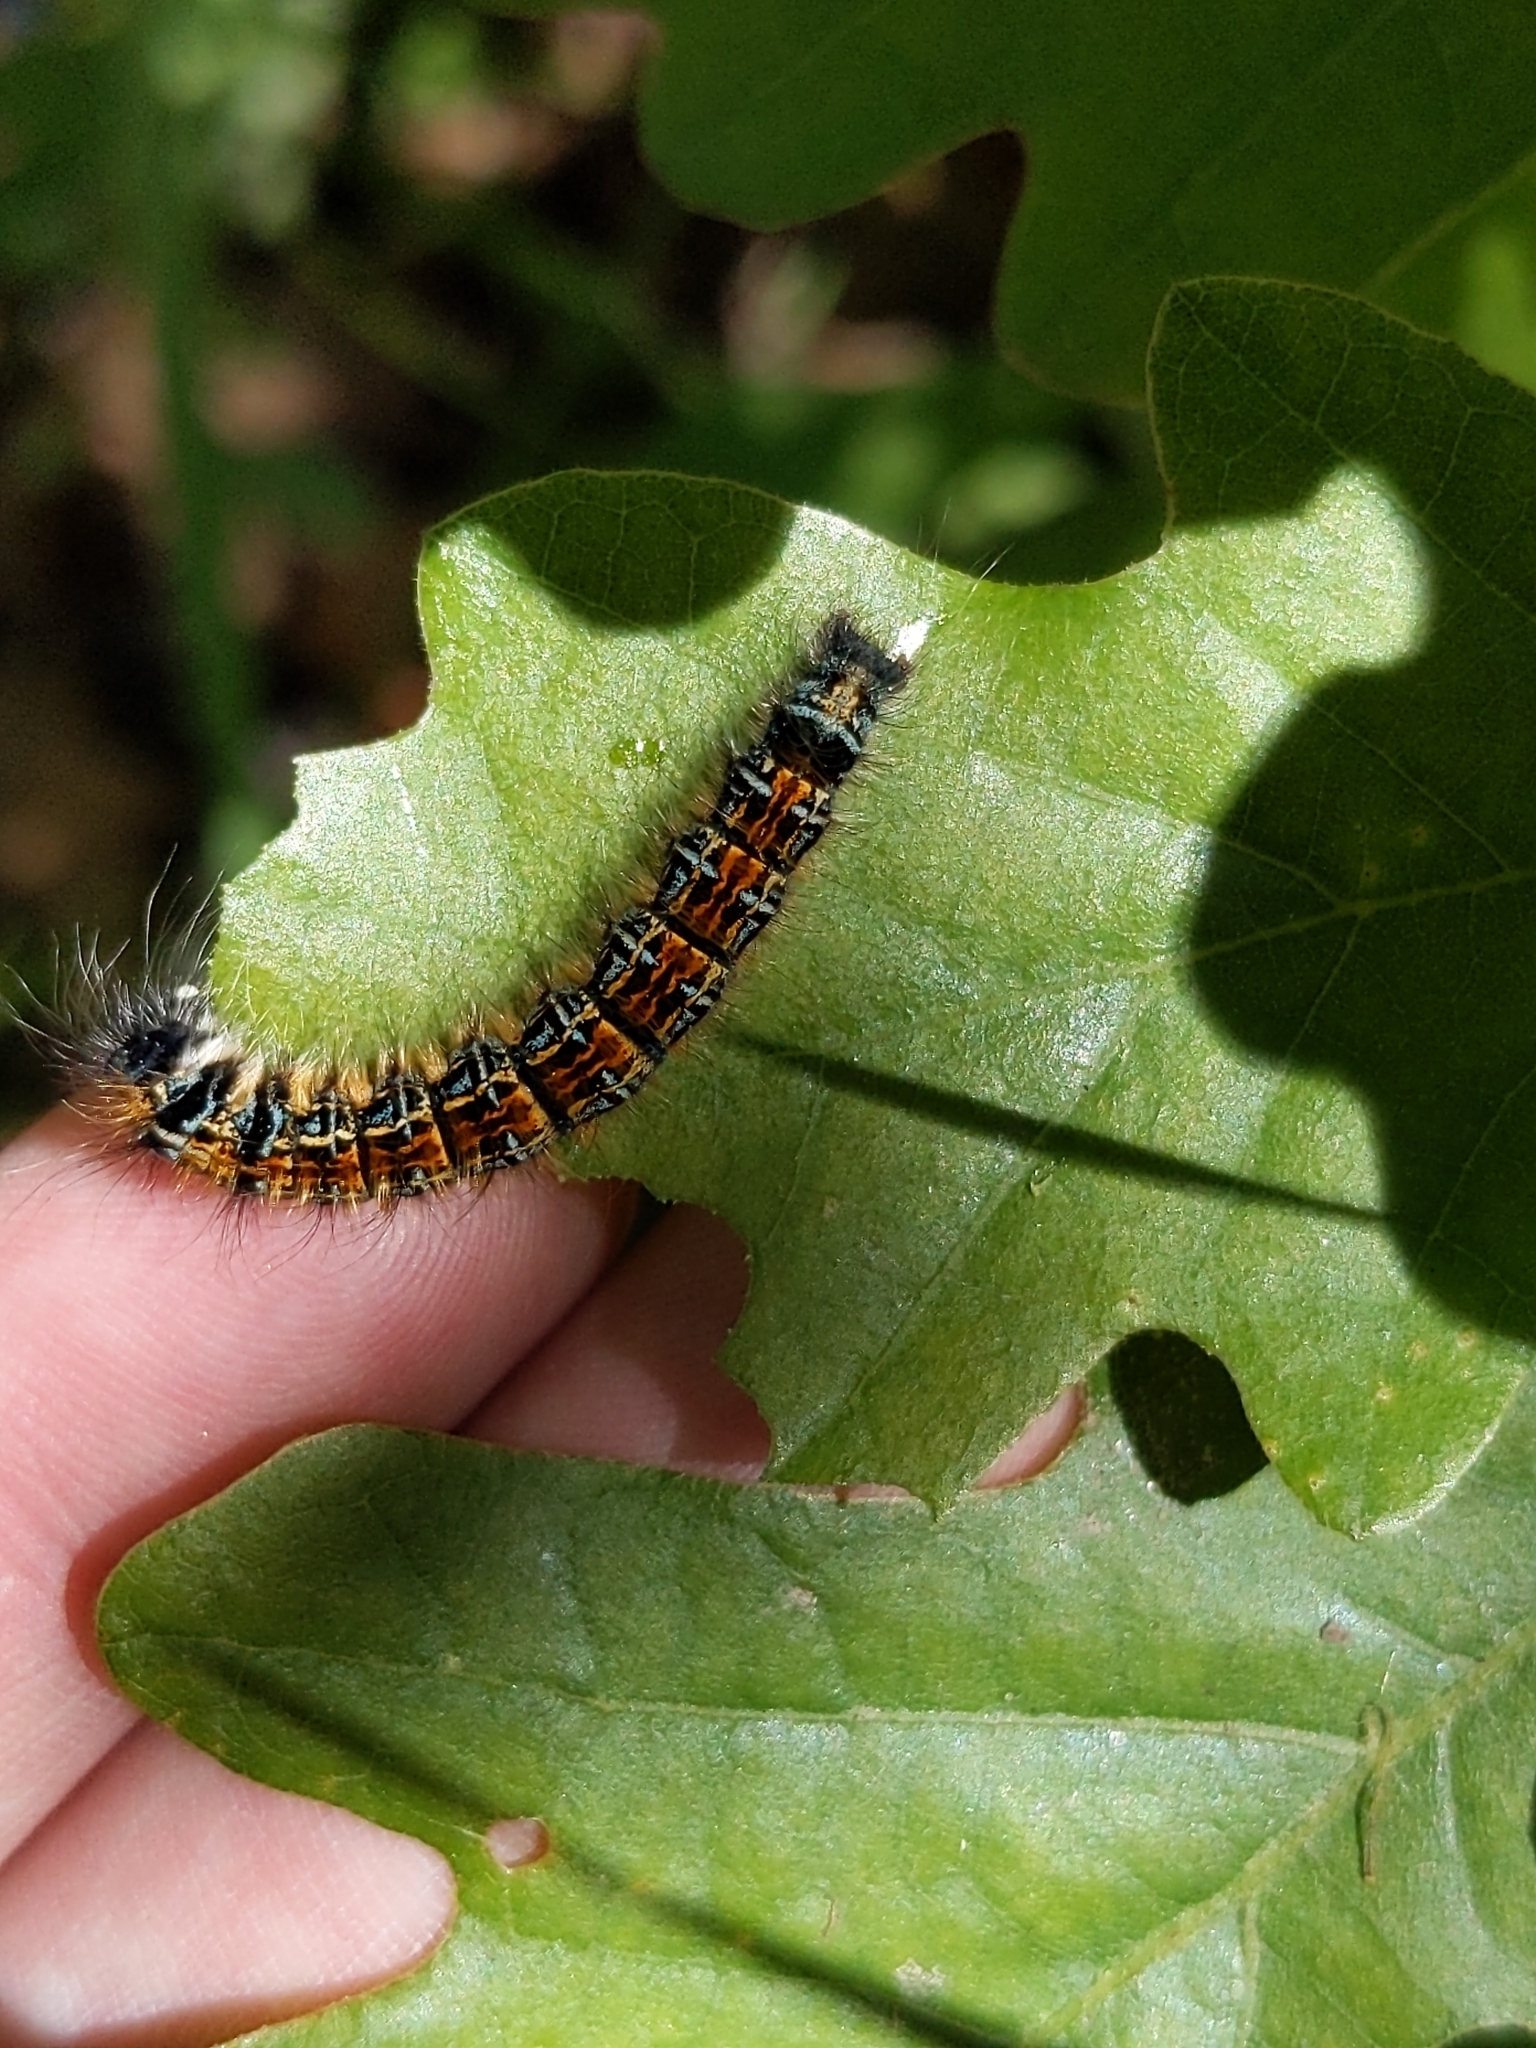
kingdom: Animalia
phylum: Arthropoda
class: Insecta
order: Lepidoptera
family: Lasiocampidae
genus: Malacosoma
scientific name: Malacosoma tigris
